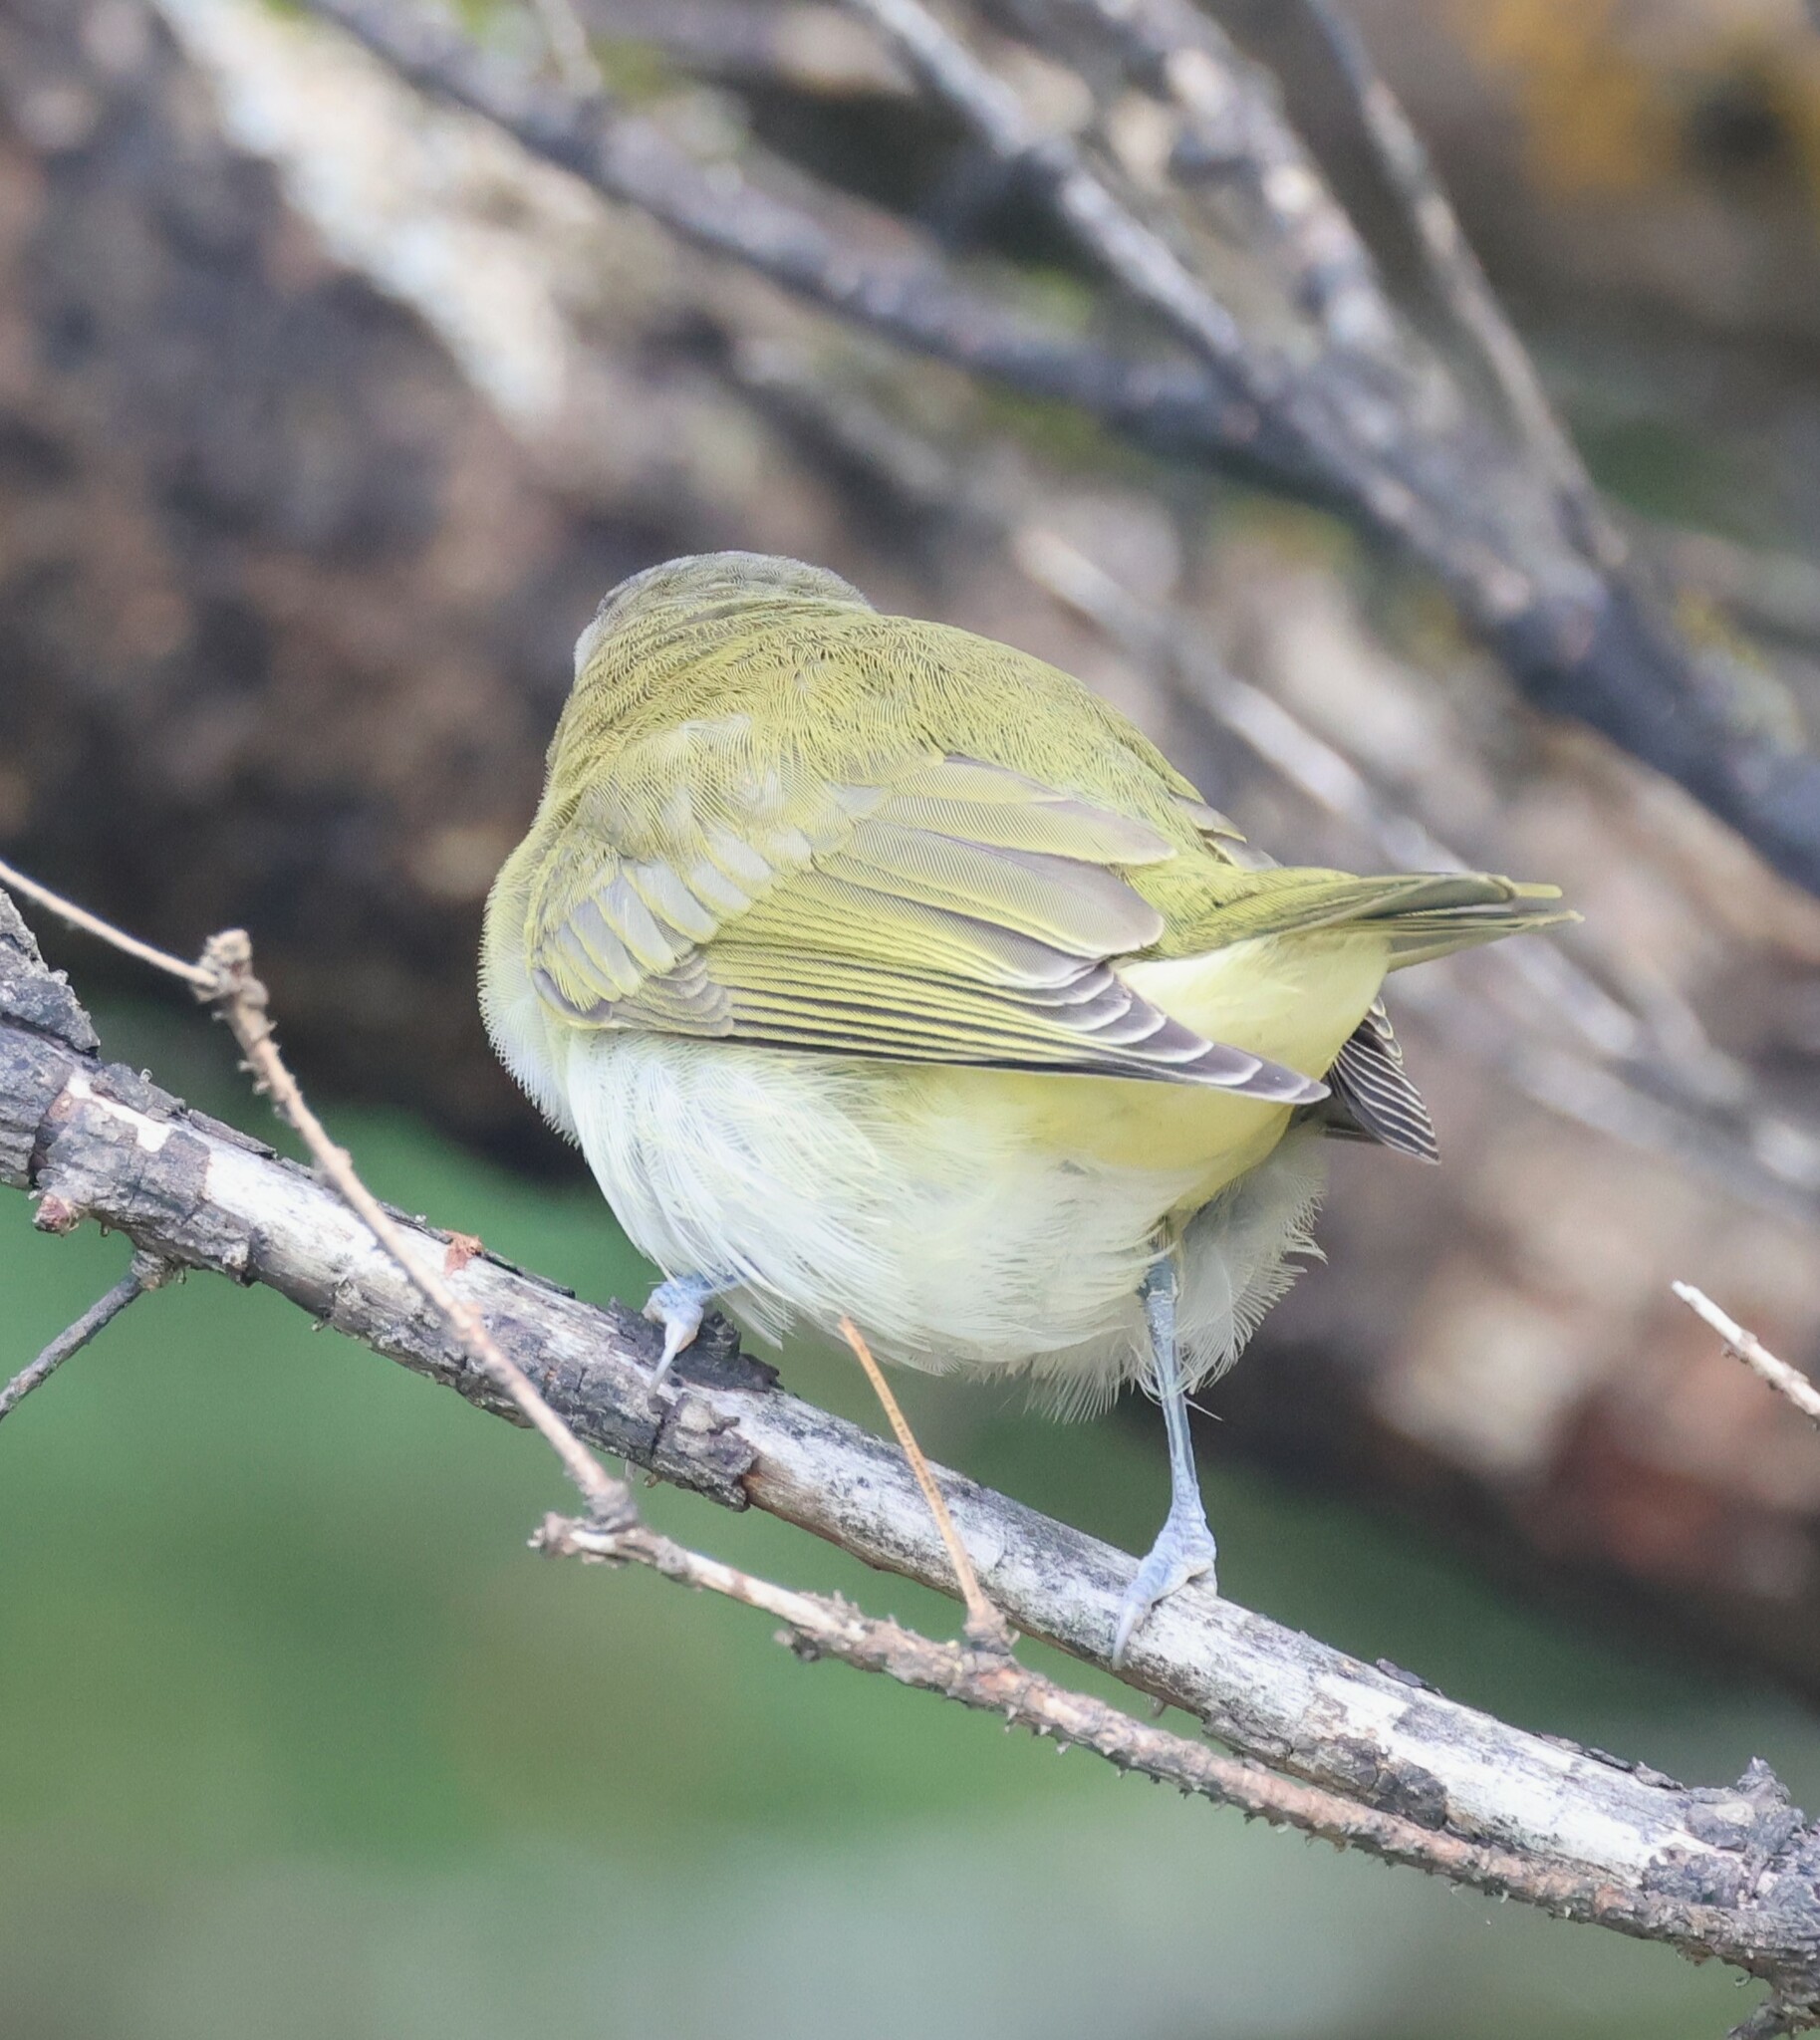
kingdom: Animalia
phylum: Chordata
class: Aves
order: Passeriformes
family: Vireonidae
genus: Vireo
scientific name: Vireo olivaceus
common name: Red-eyed vireo
